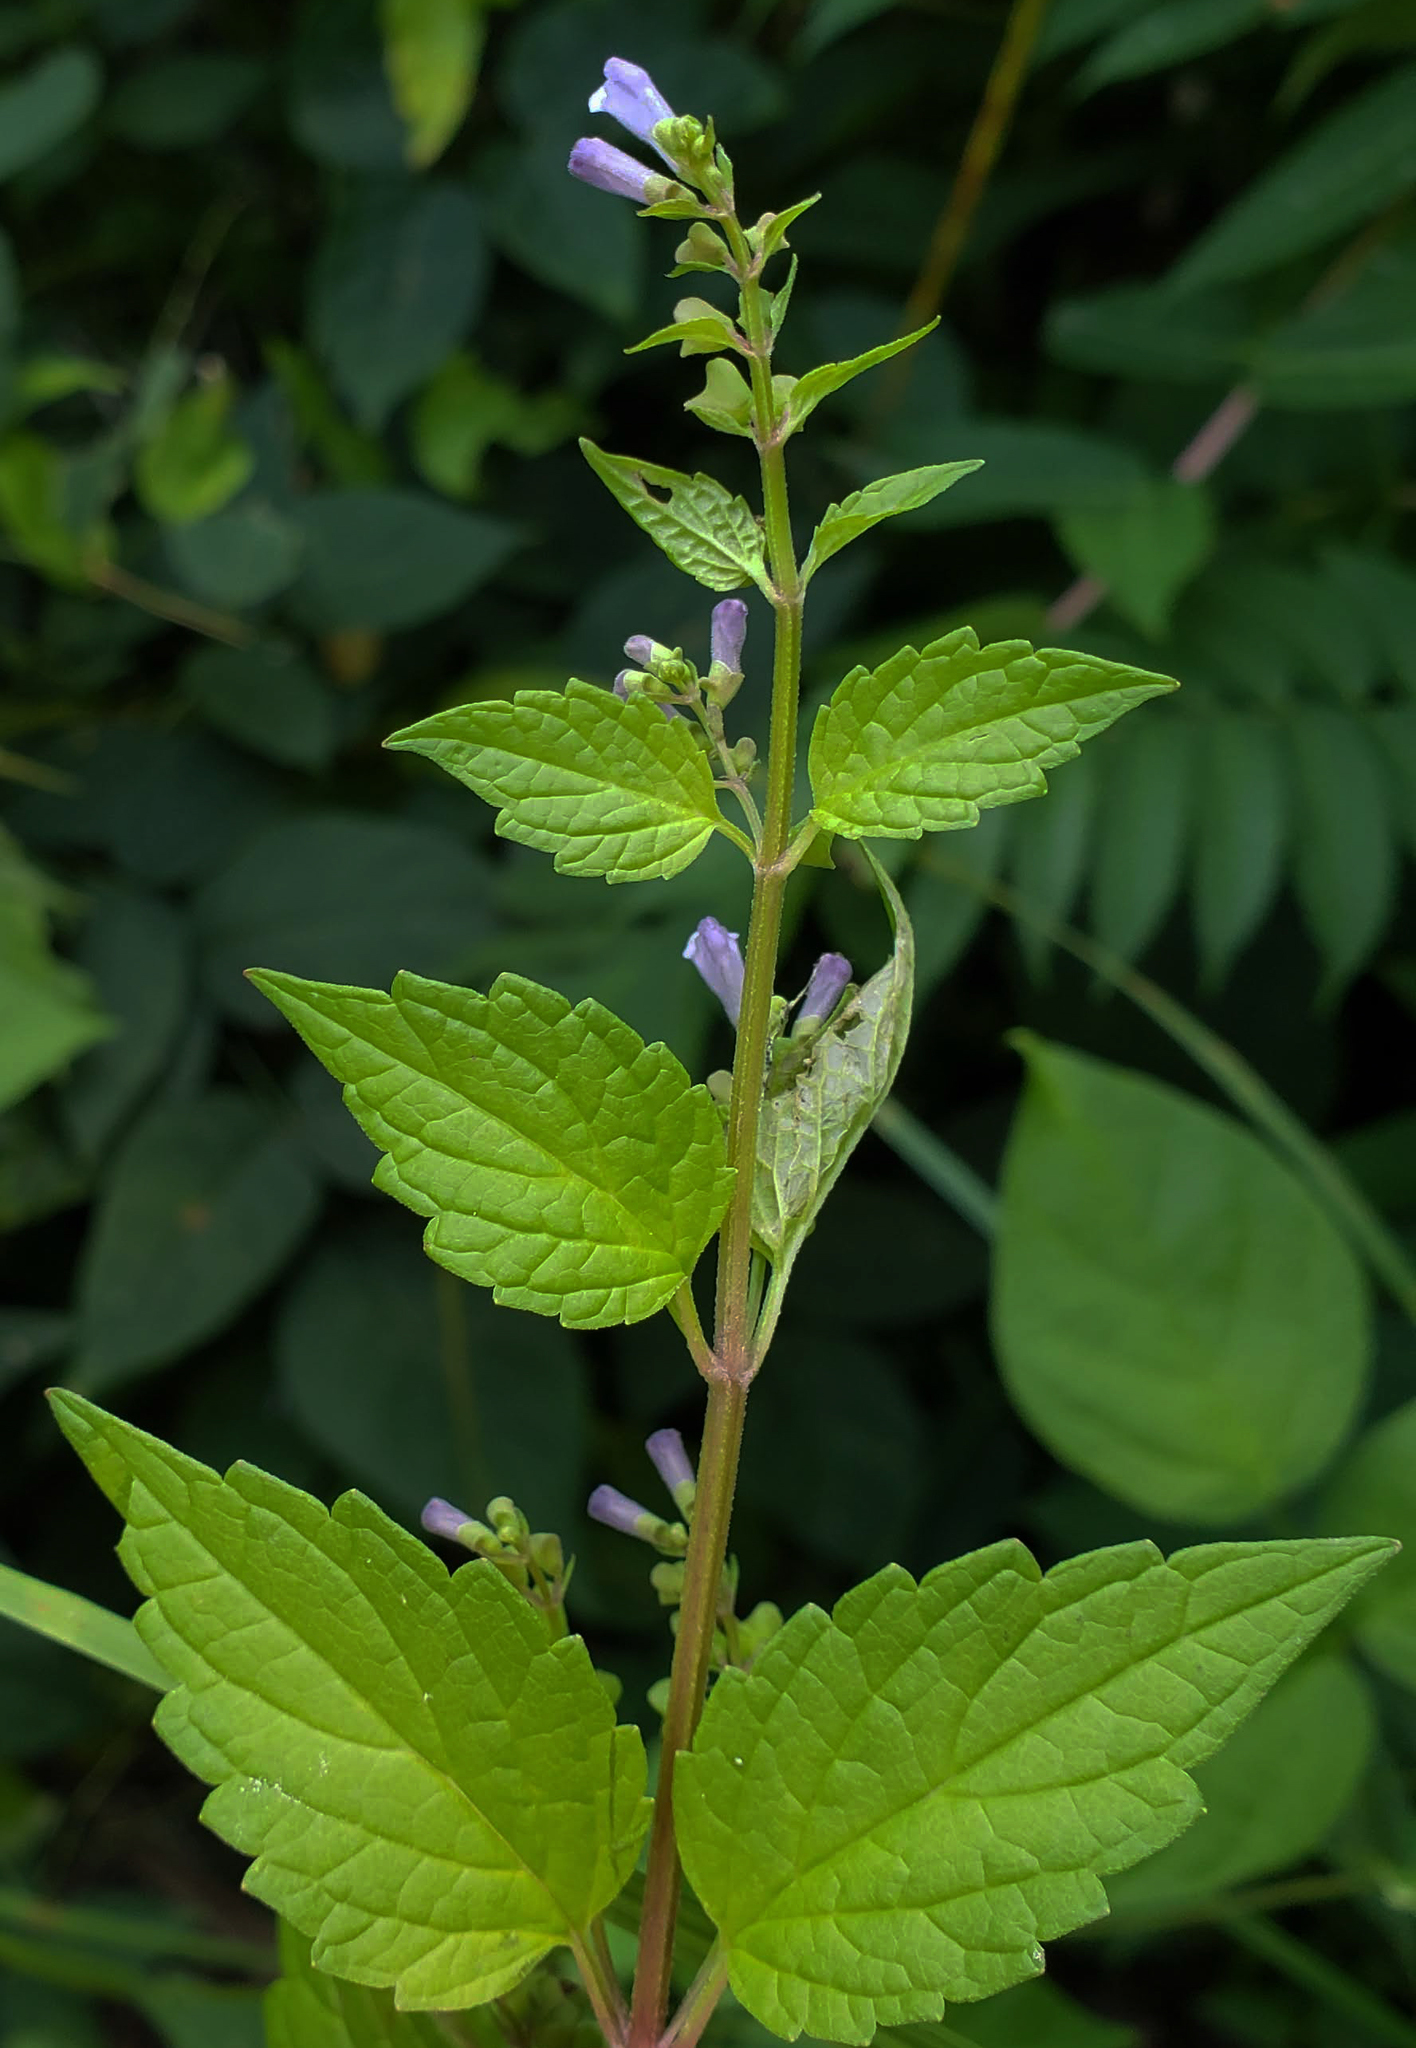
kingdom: Plantae
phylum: Tracheophyta
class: Magnoliopsida
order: Lamiales
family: Lamiaceae
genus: Scutellaria
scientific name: Scutellaria lateriflora
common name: Blue skullcap
